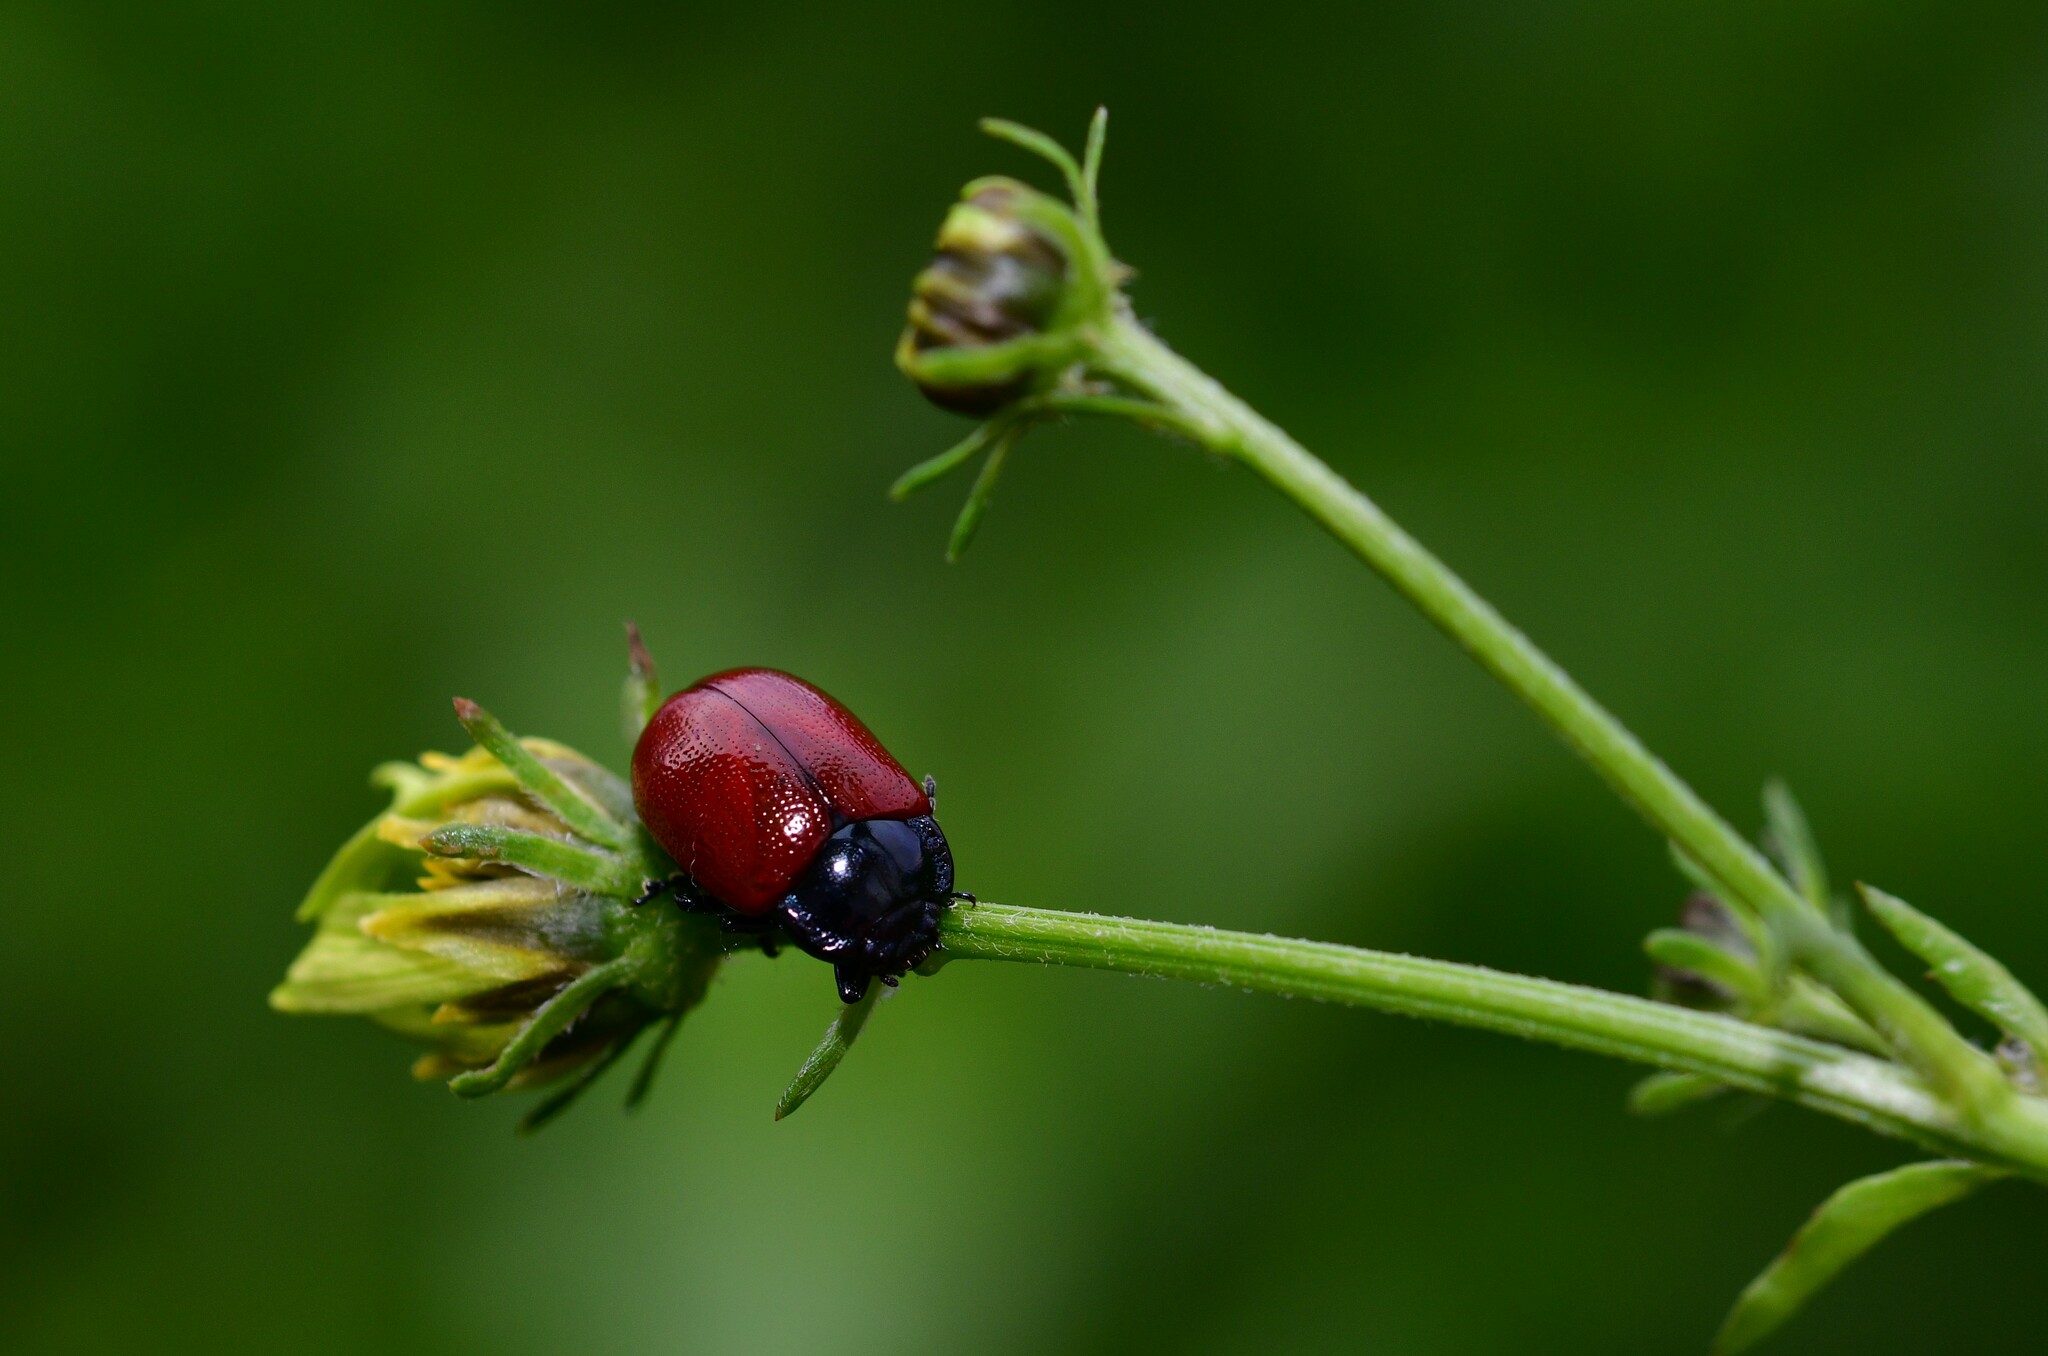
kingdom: Animalia
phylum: Arthropoda
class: Insecta
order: Coleoptera
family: Chrysomelidae
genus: Chrysolina
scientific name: Chrysolina lucida
